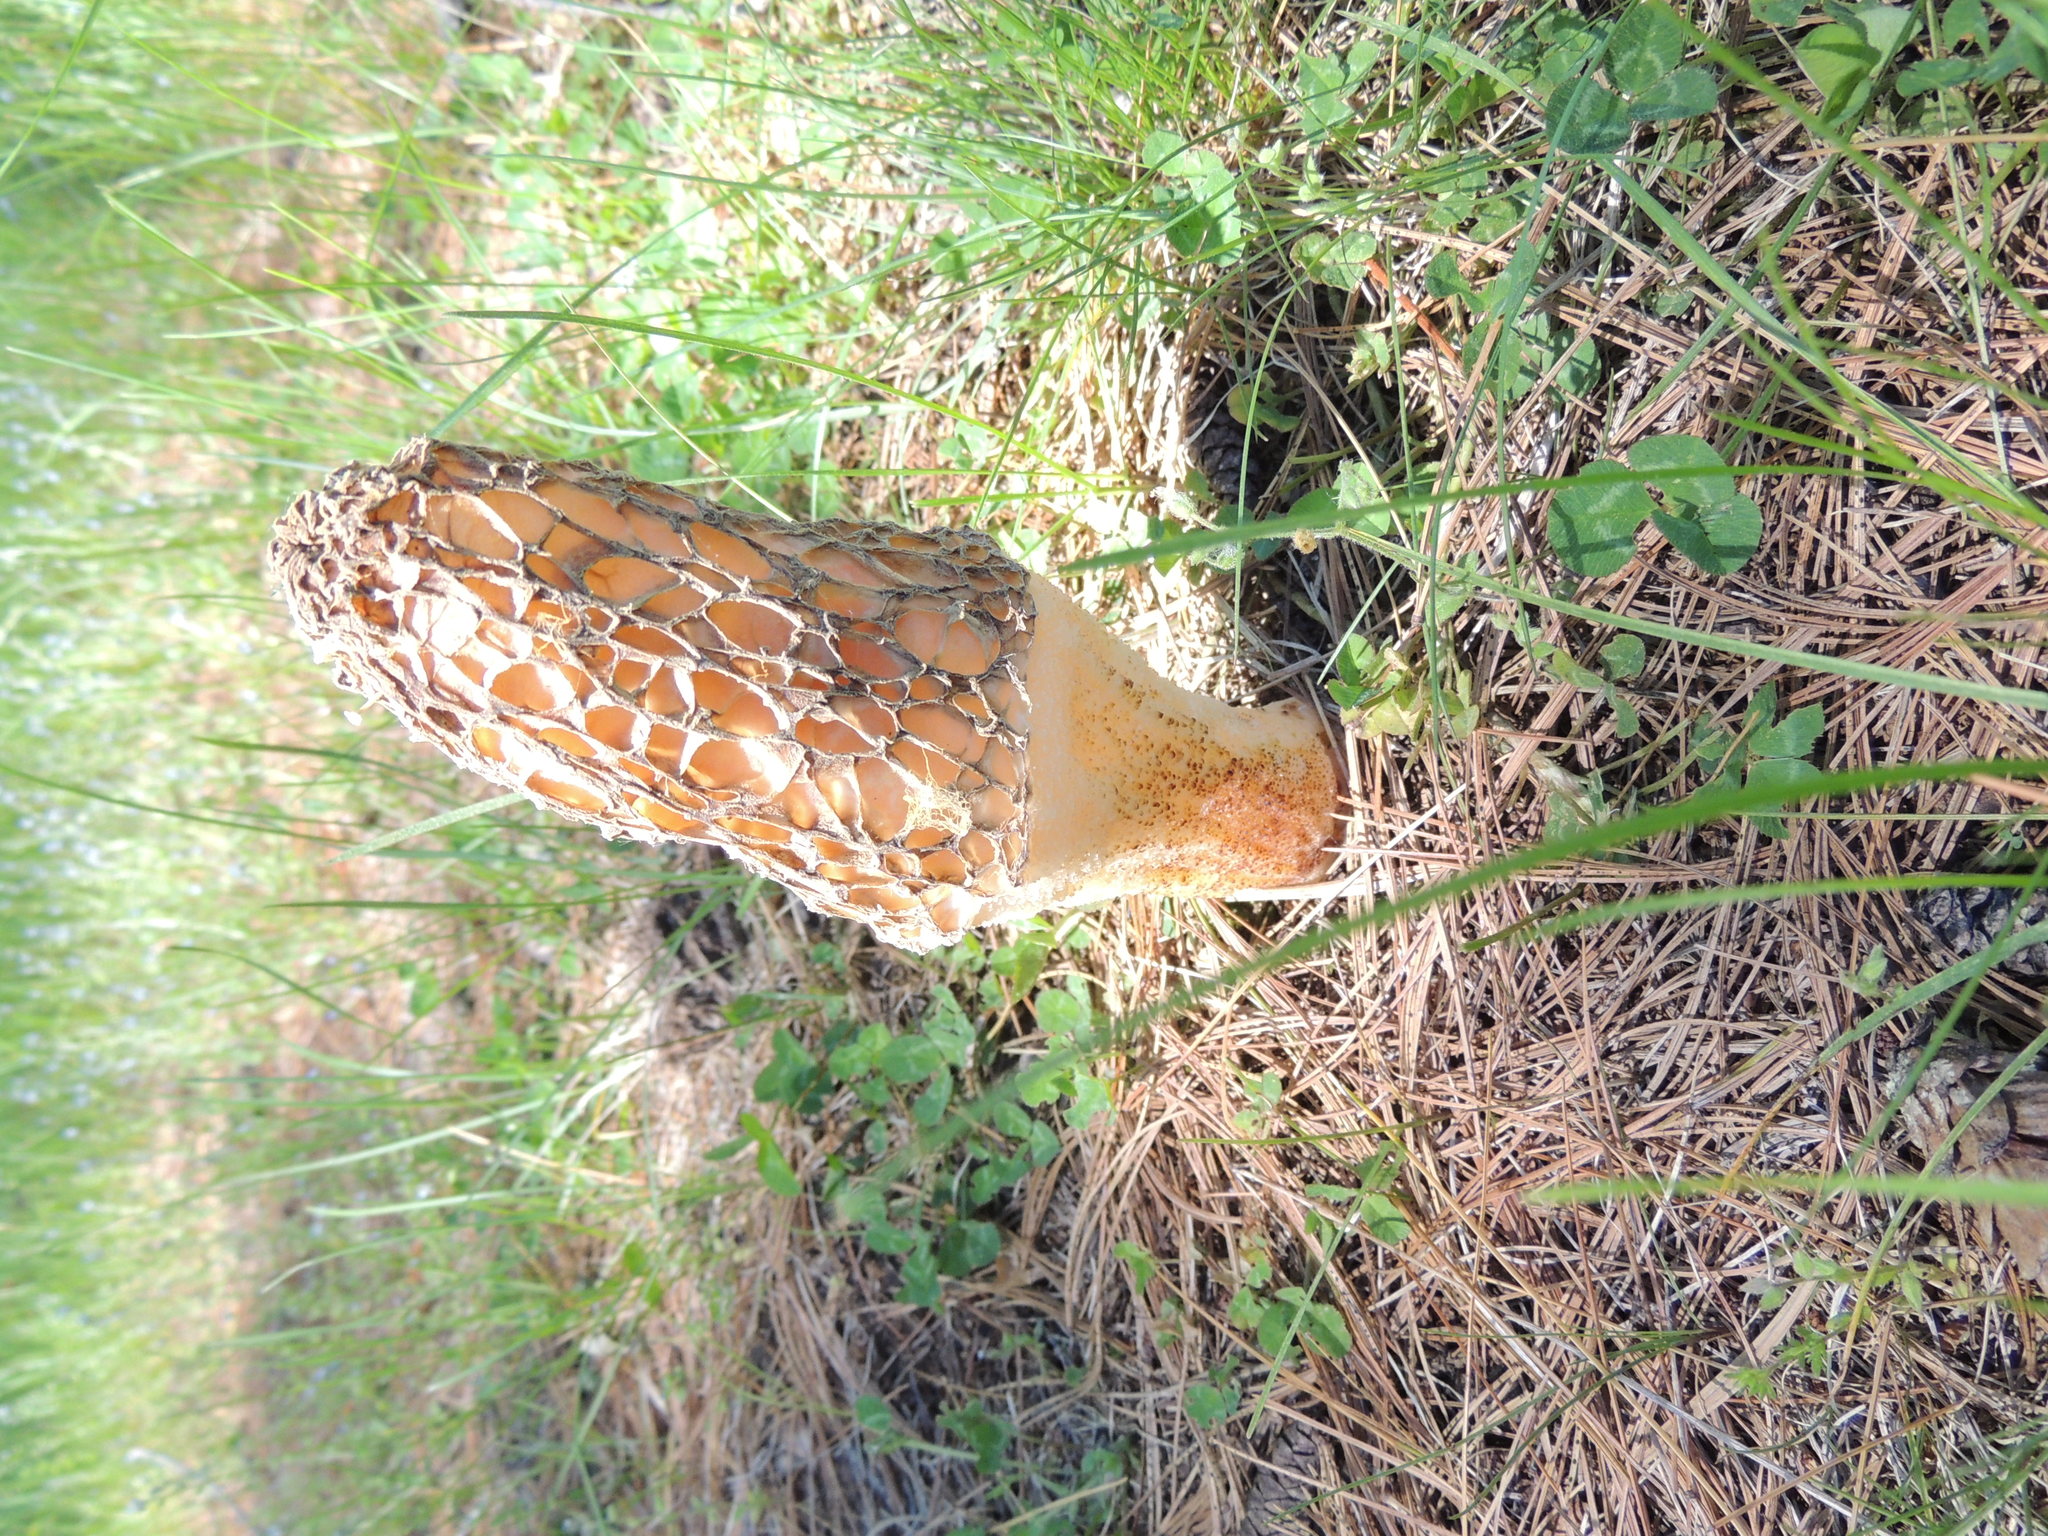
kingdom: Fungi
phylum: Ascomycota
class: Pezizomycetes
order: Pezizales
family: Morchellaceae
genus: Morchella
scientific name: Morchella americana
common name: White morel
